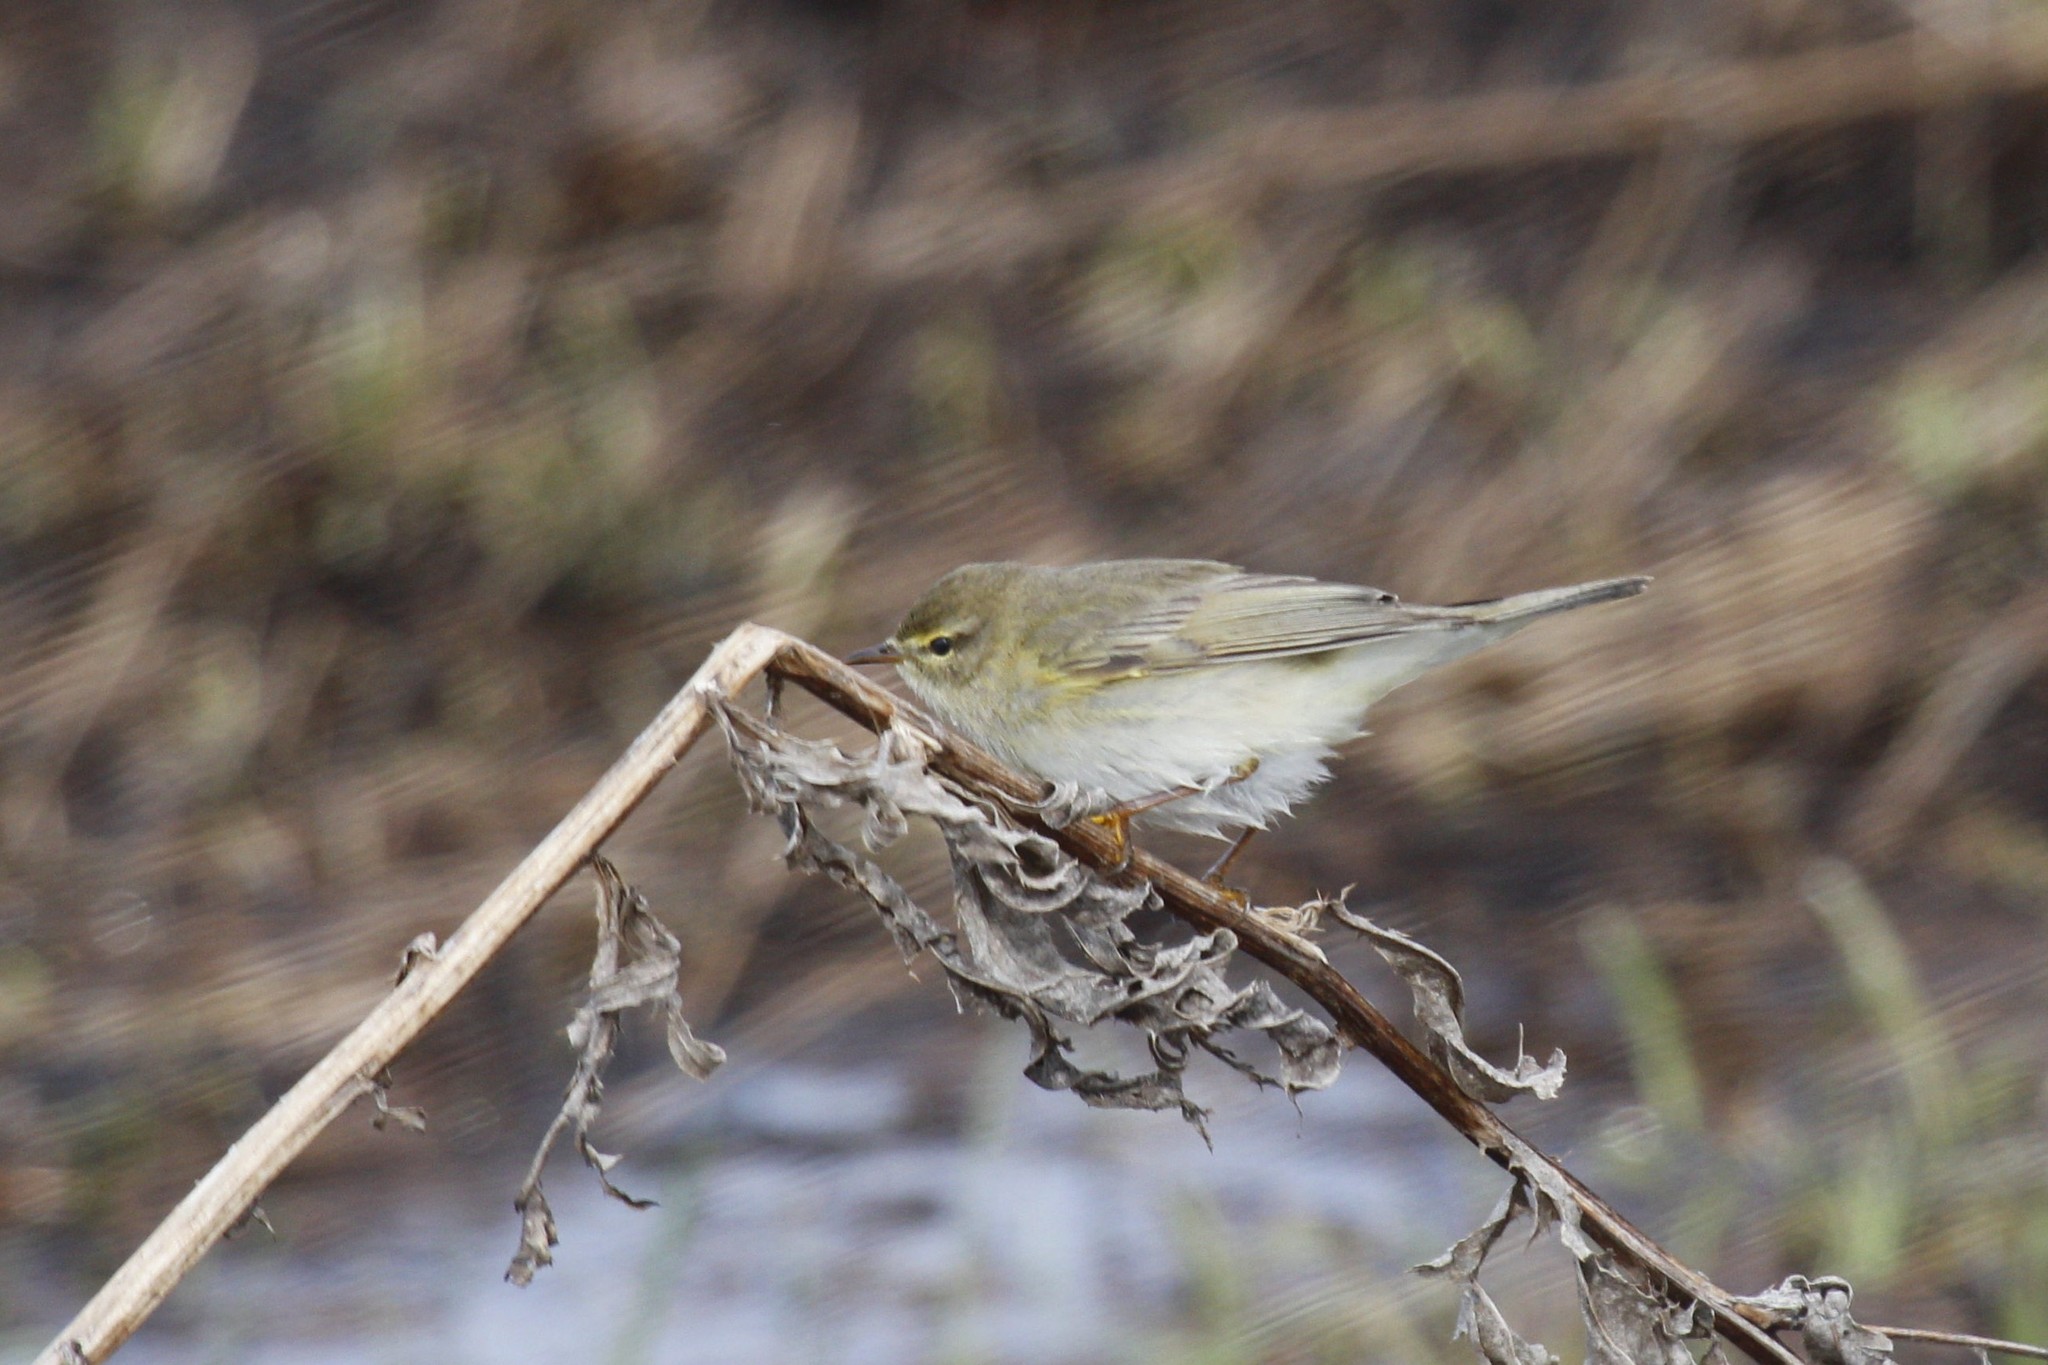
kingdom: Animalia
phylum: Chordata
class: Aves
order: Passeriformes
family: Phylloscopidae
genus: Phylloscopus
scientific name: Phylloscopus trochilus
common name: Willow warbler
